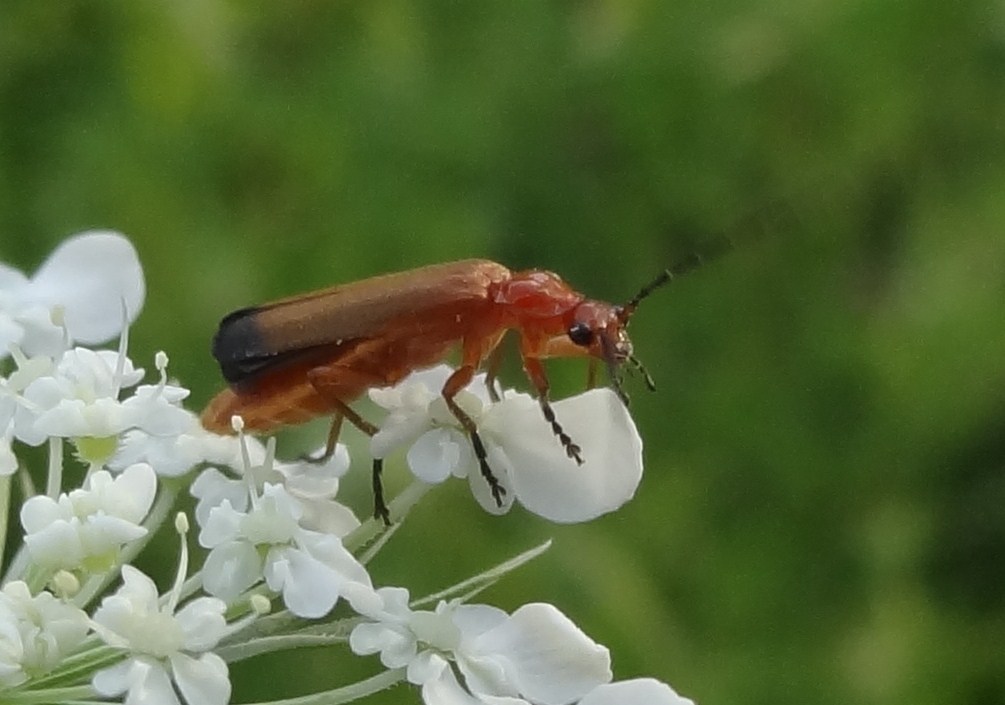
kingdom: Animalia
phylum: Arthropoda
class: Insecta
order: Coleoptera
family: Cantharidae
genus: Rhagonycha
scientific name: Rhagonycha fulva
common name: Common red soldier beetle
